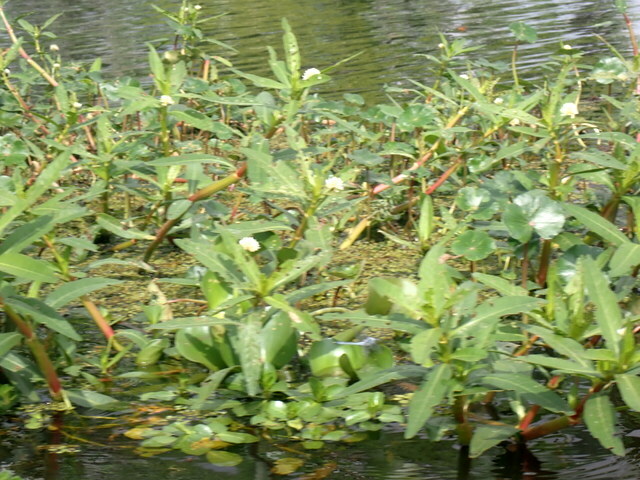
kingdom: Plantae
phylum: Tracheophyta
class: Magnoliopsida
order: Caryophyllales
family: Amaranthaceae
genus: Alternanthera
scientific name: Alternanthera philoxeroides
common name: Alligatorweed
